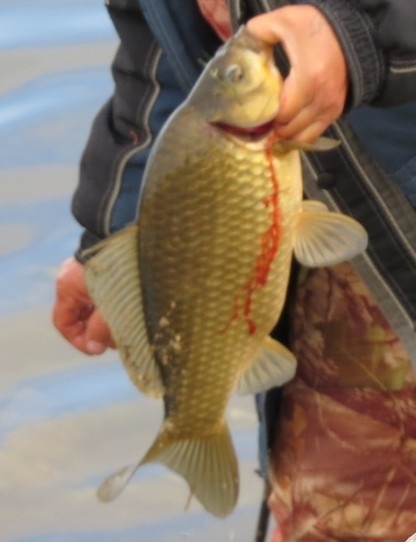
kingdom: Animalia
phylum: Chordata
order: Cypriniformes
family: Cyprinidae
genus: Cyprinus
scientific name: Cyprinus carpio
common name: Common carp
